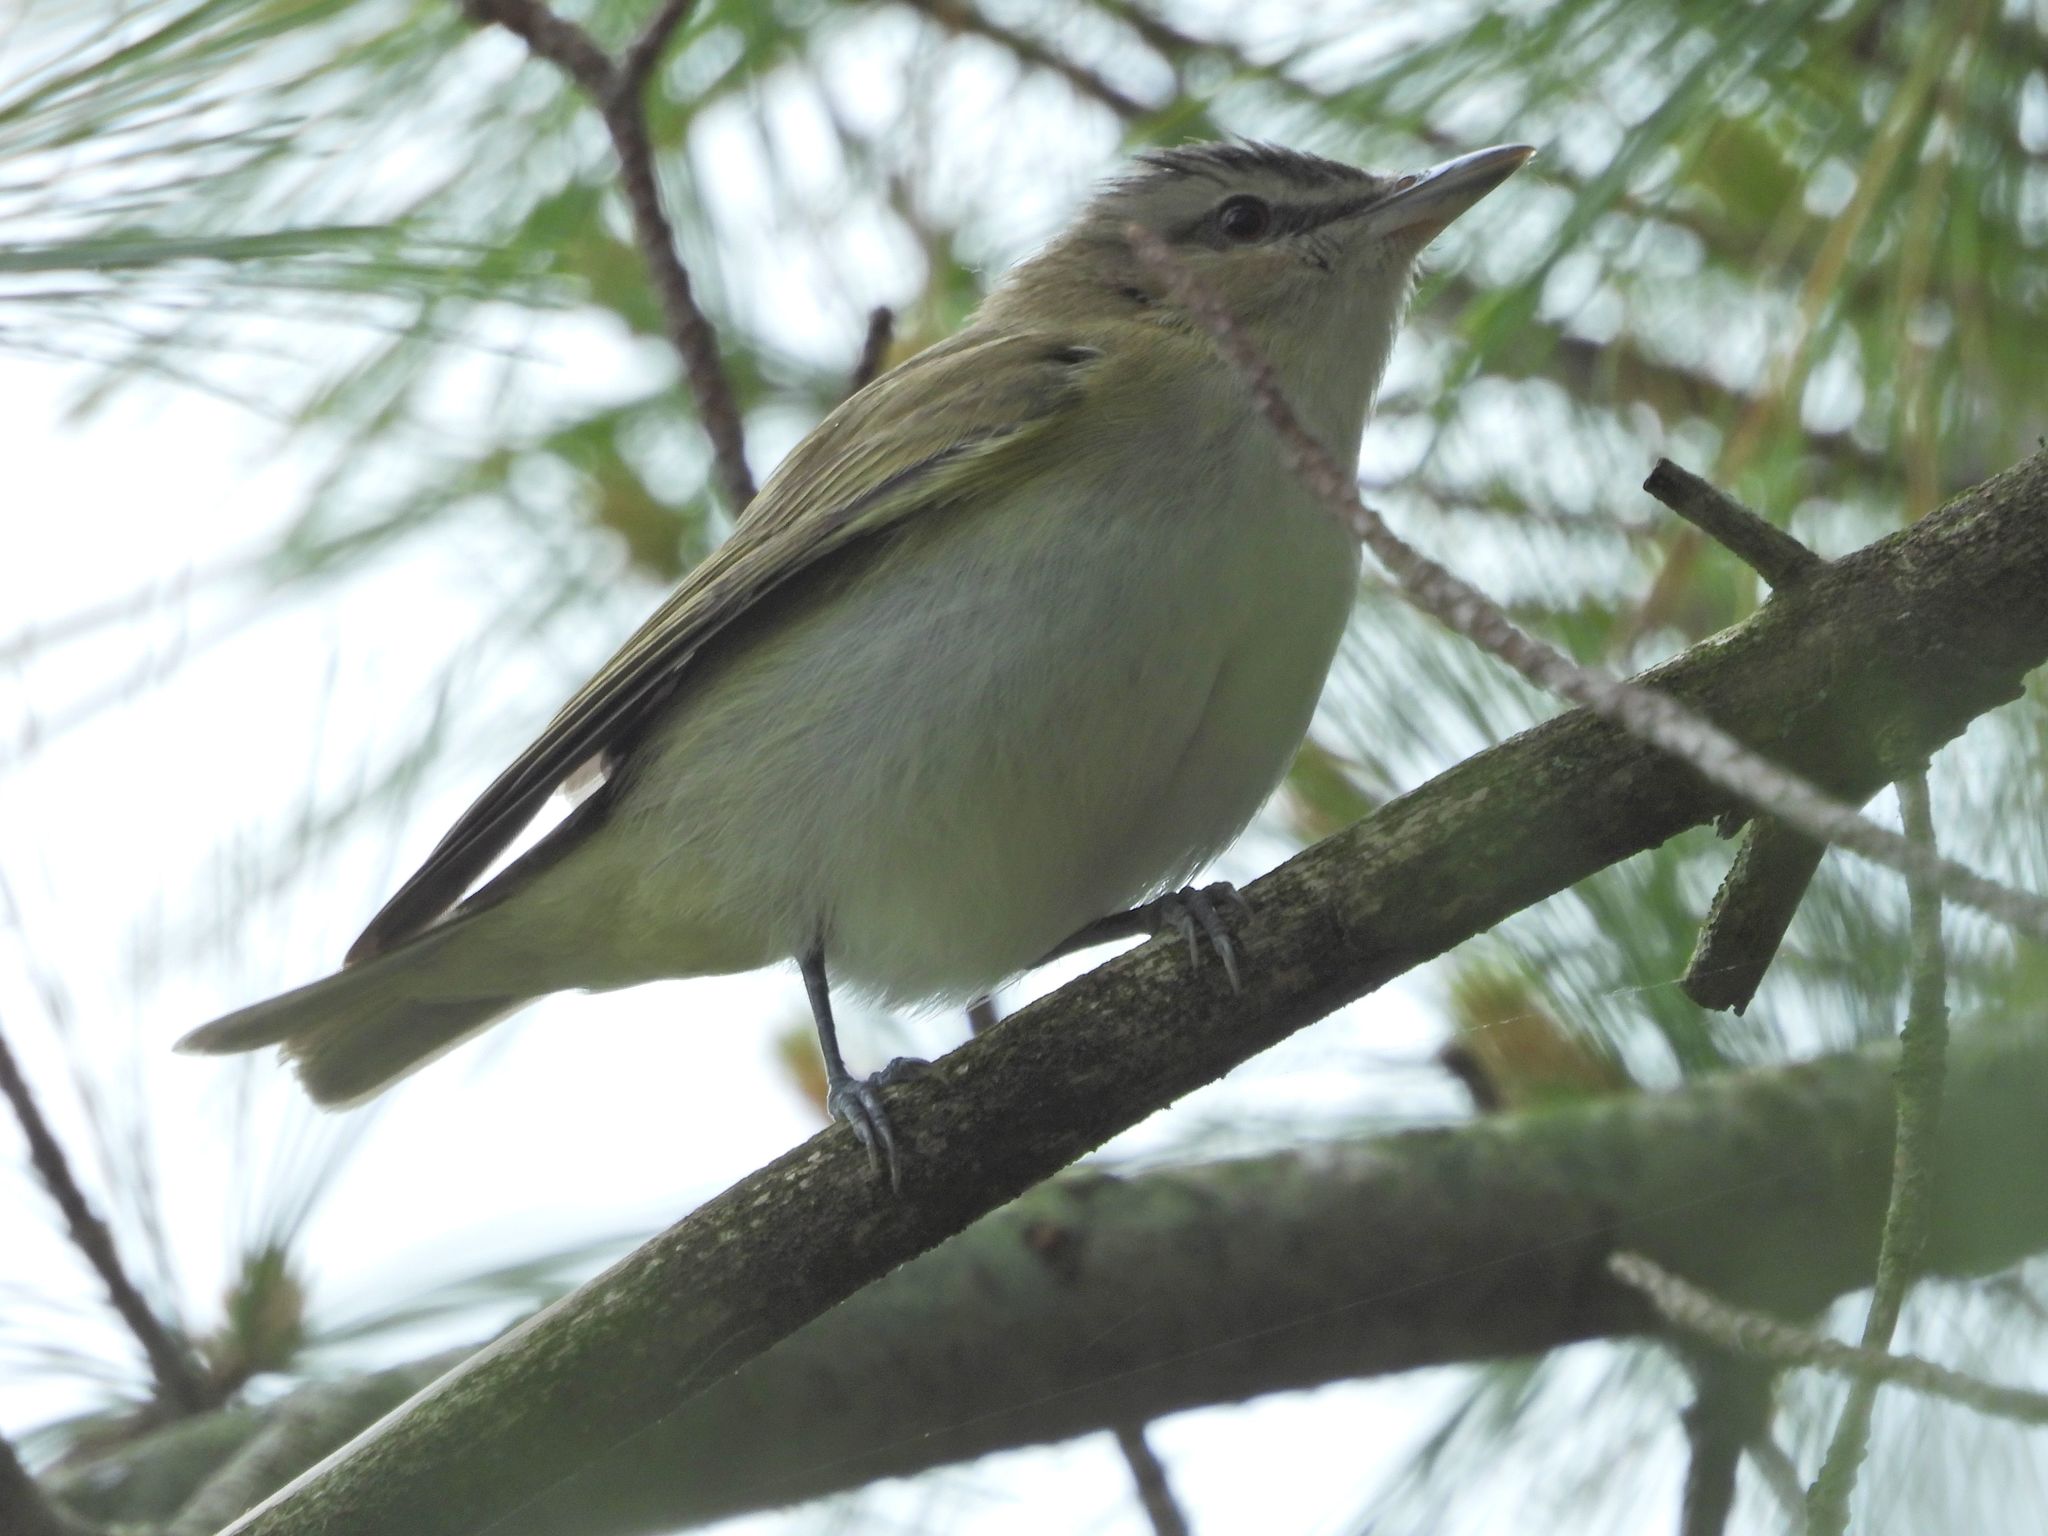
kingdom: Animalia
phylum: Chordata
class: Aves
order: Passeriformes
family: Vireonidae
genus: Vireo
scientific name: Vireo olivaceus
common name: Red-eyed vireo
